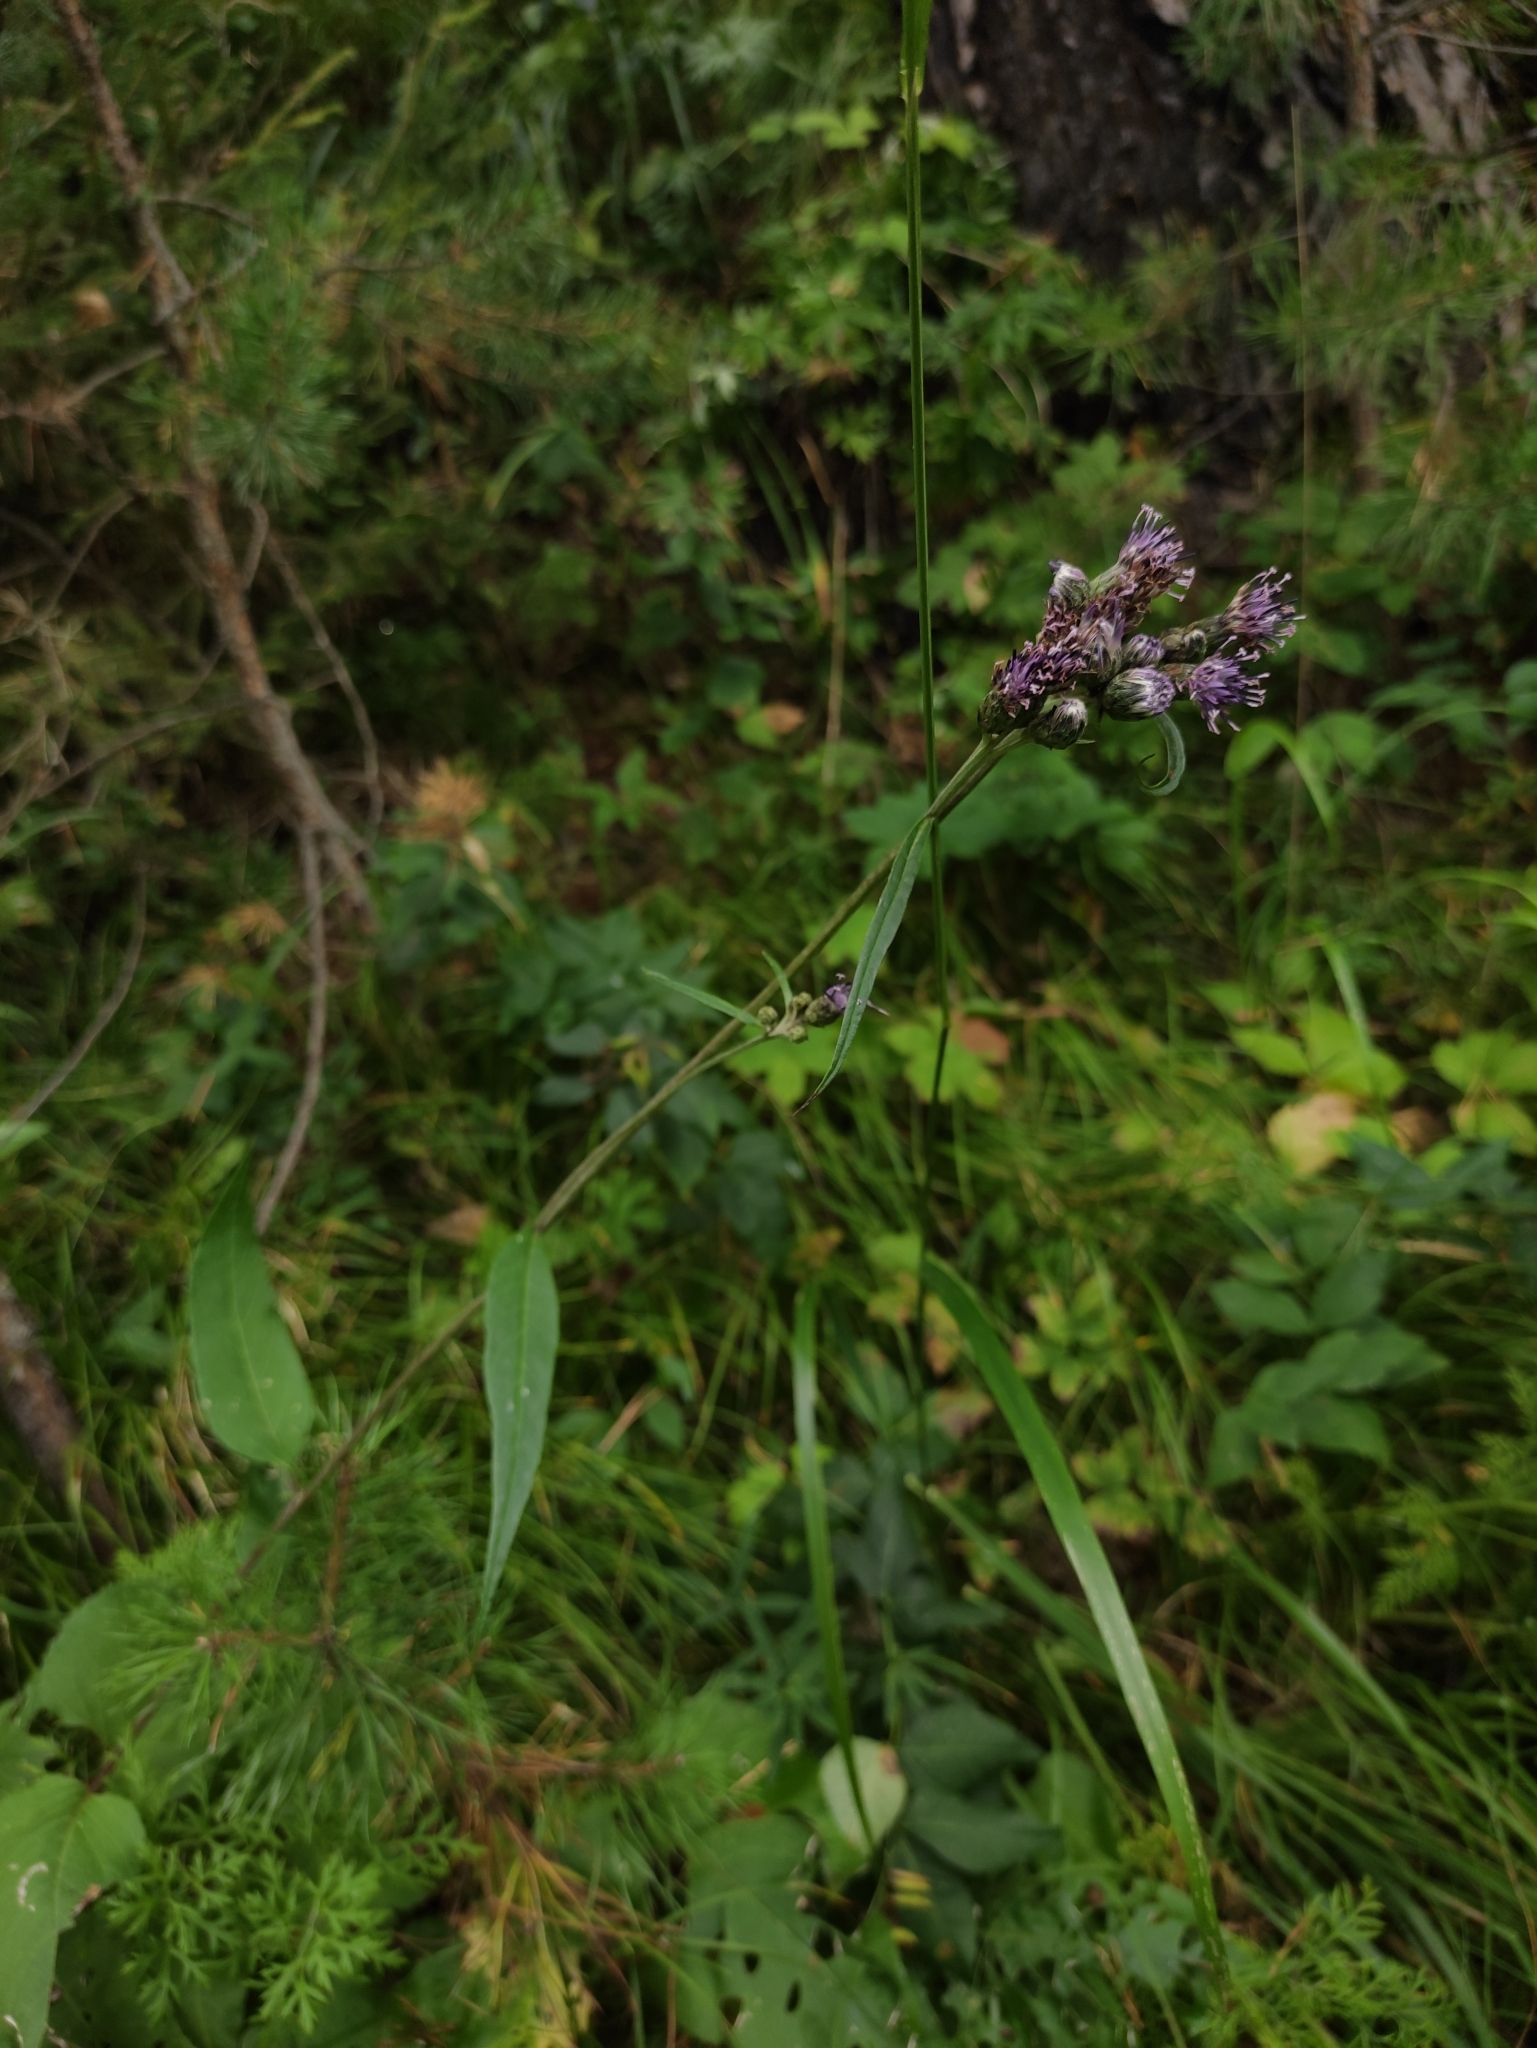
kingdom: Plantae
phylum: Tracheophyta
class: Magnoliopsida
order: Asterales
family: Asteraceae
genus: Saussurea
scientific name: Saussurea controversa
